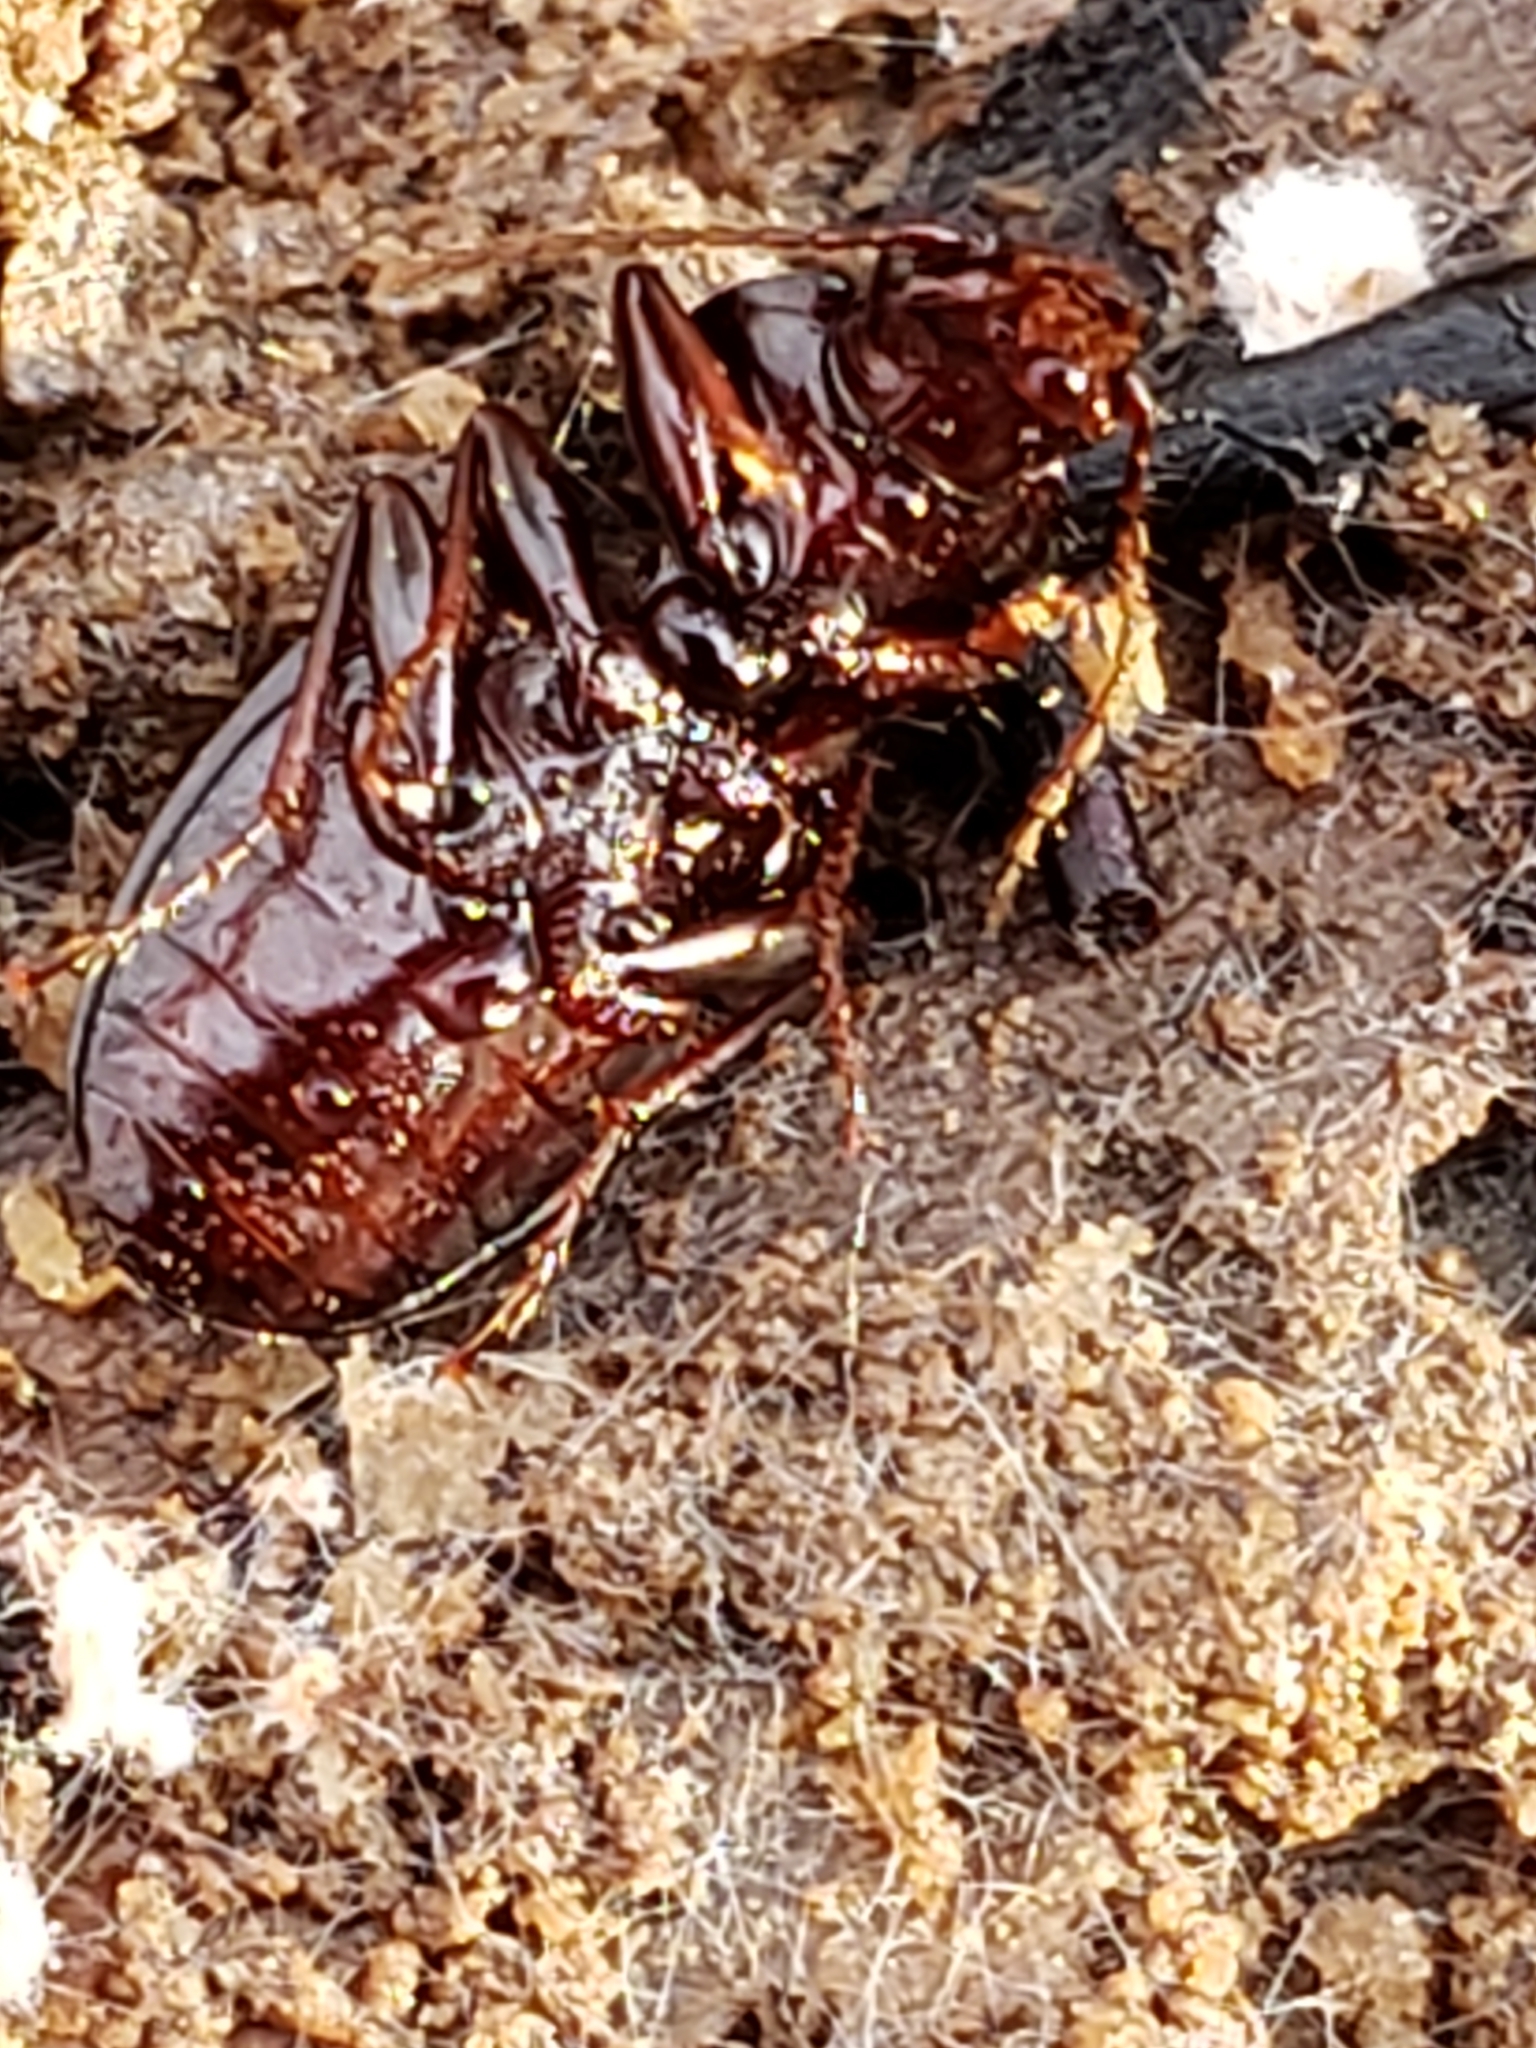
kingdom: Animalia
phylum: Arthropoda
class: Insecta
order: Coleoptera
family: Carabidae
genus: Gastrellarius
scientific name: Gastrellarius honestus
